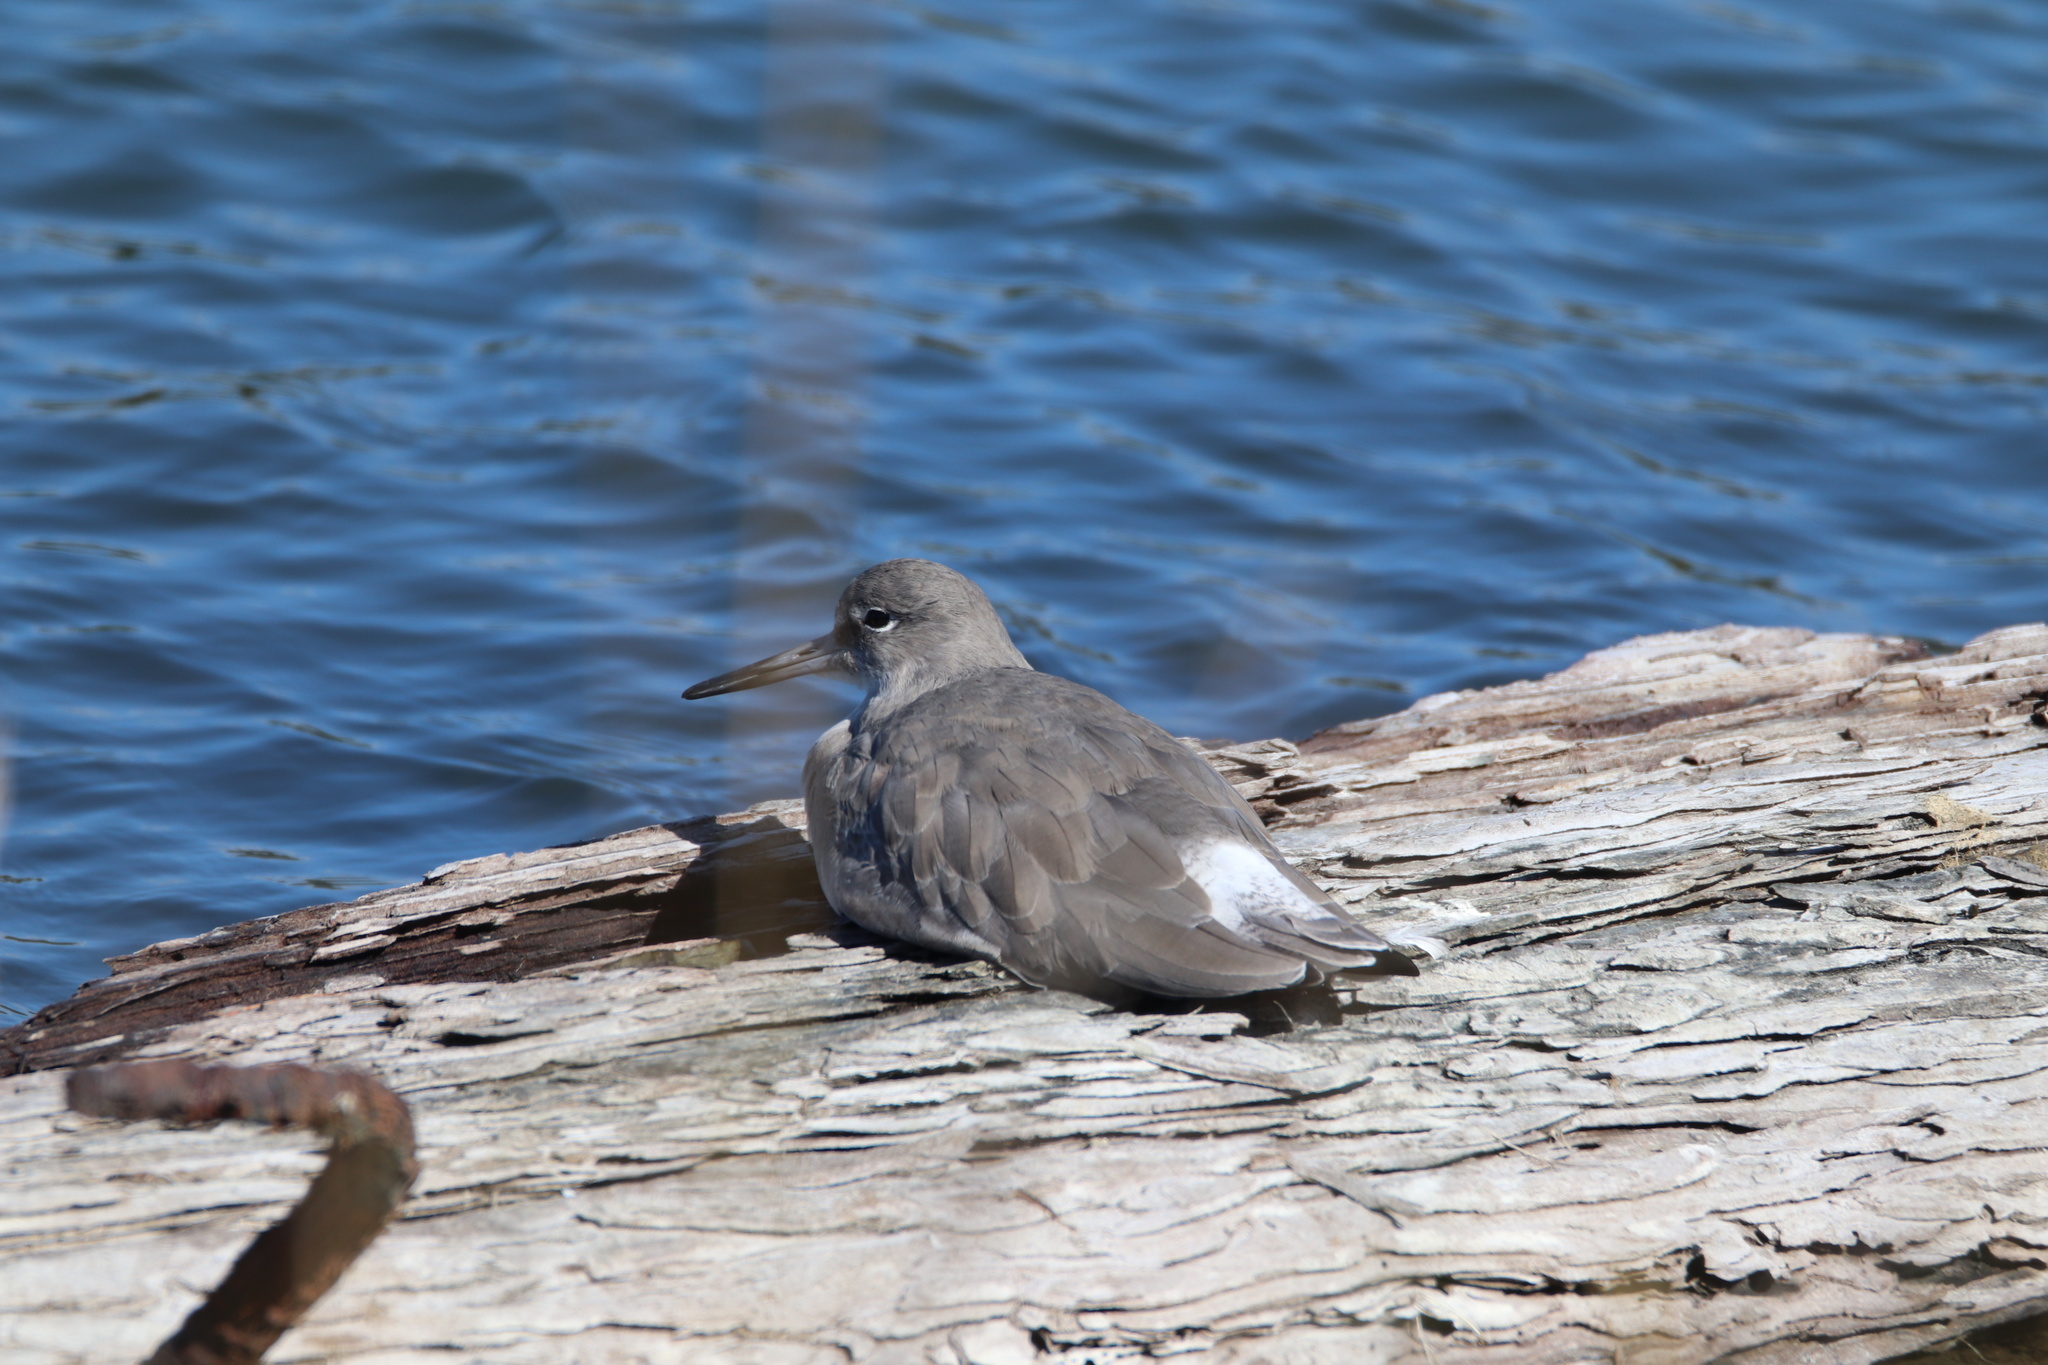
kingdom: Animalia
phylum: Chordata
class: Aves
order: Charadriiformes
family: Scolopacidae
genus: Tringa
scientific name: Tringa semipalmata
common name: Willet
